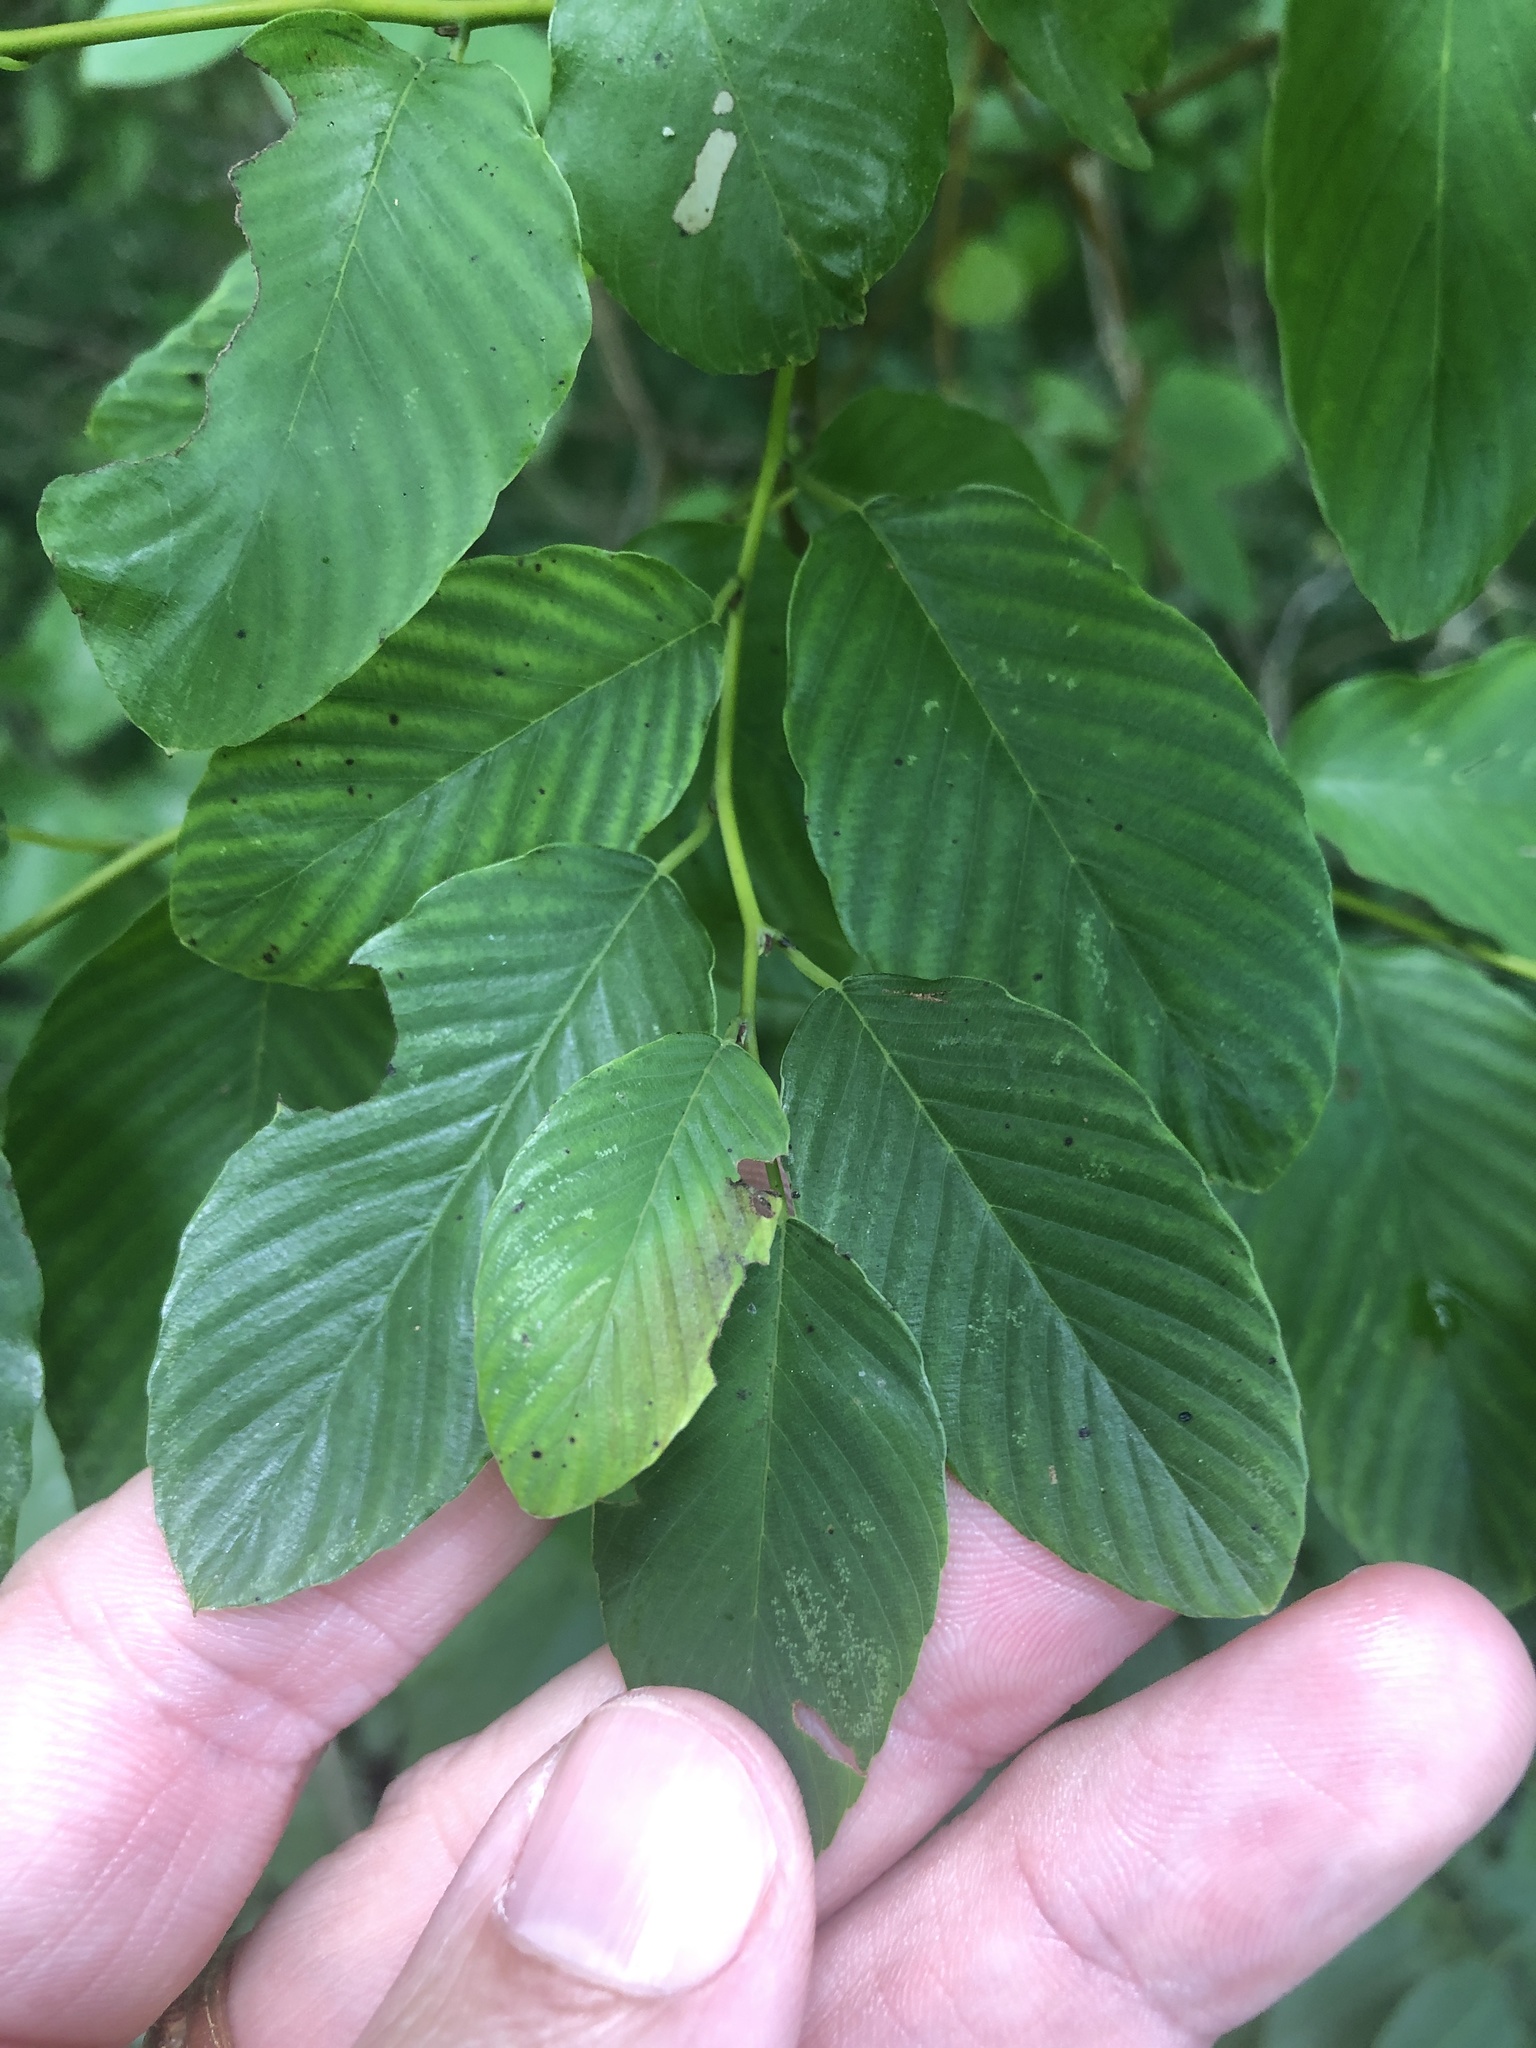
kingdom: Plantae
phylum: Tracheophyta
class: Magnoliopsida
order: Rosales
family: Rhamnaceae
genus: Berchemia
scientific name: Berchemia scandens
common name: Supplejack
